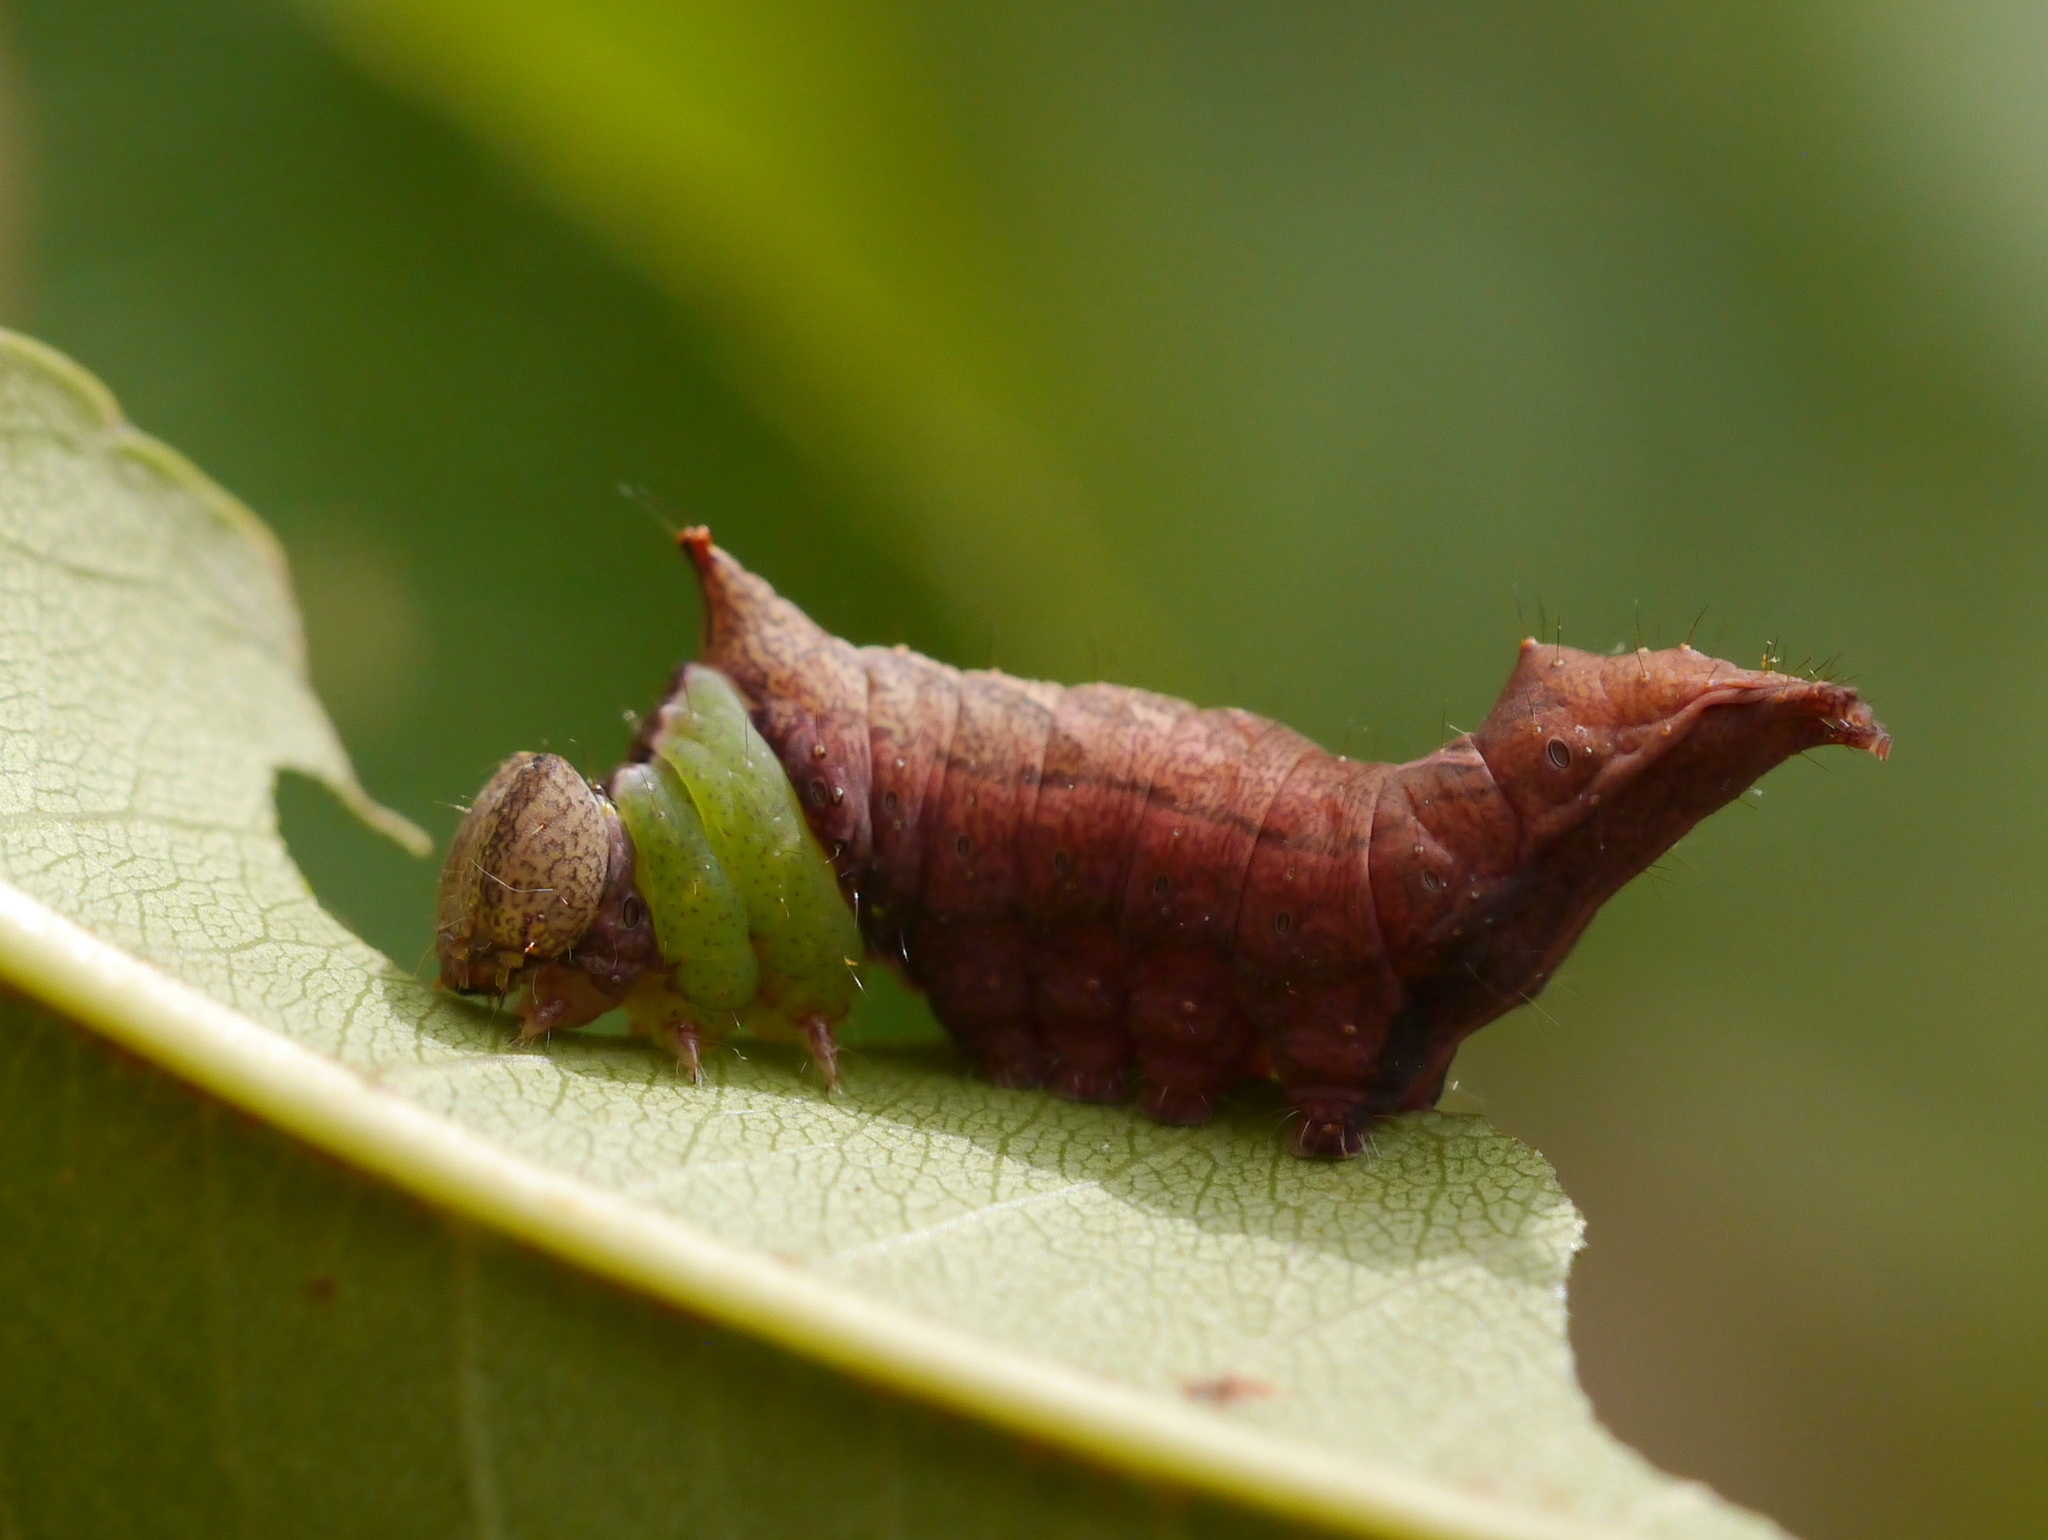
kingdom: Animalia
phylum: Arthropoda
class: Insecta
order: Lepidoptera
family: Notodontidae
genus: Schizura
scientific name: Schizura
